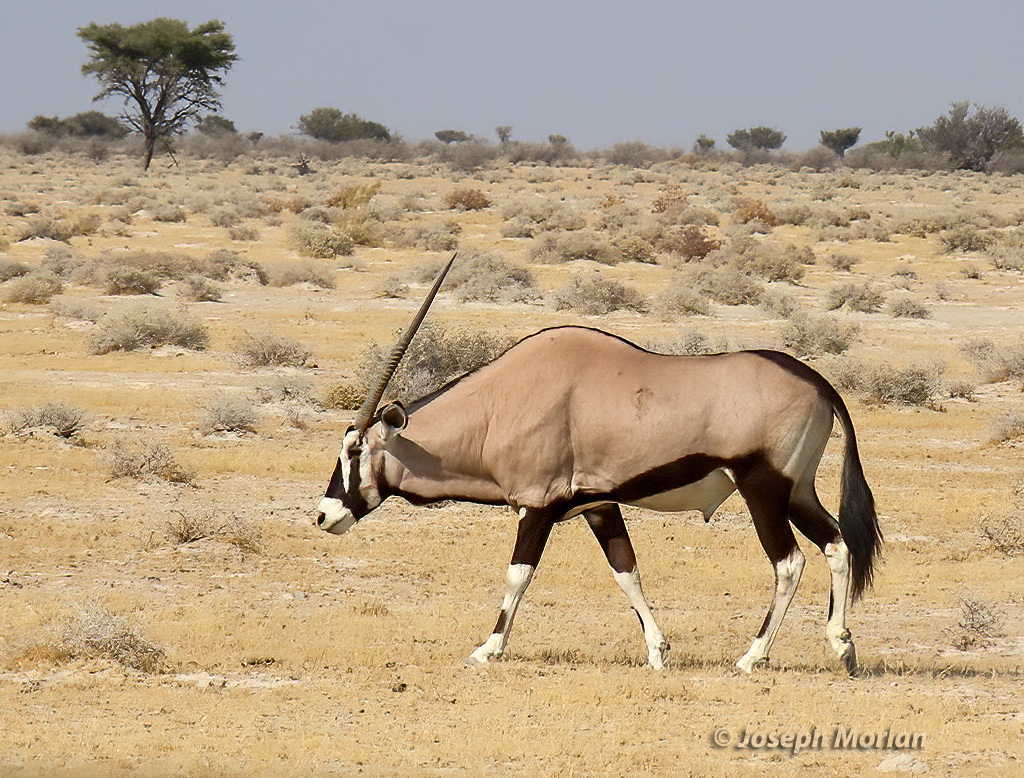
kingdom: Animalia
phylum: Chordata
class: Mammalia
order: Artiodactyla
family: Bovidae
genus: Oryx
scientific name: Oryx gazella
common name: Gemsbok
